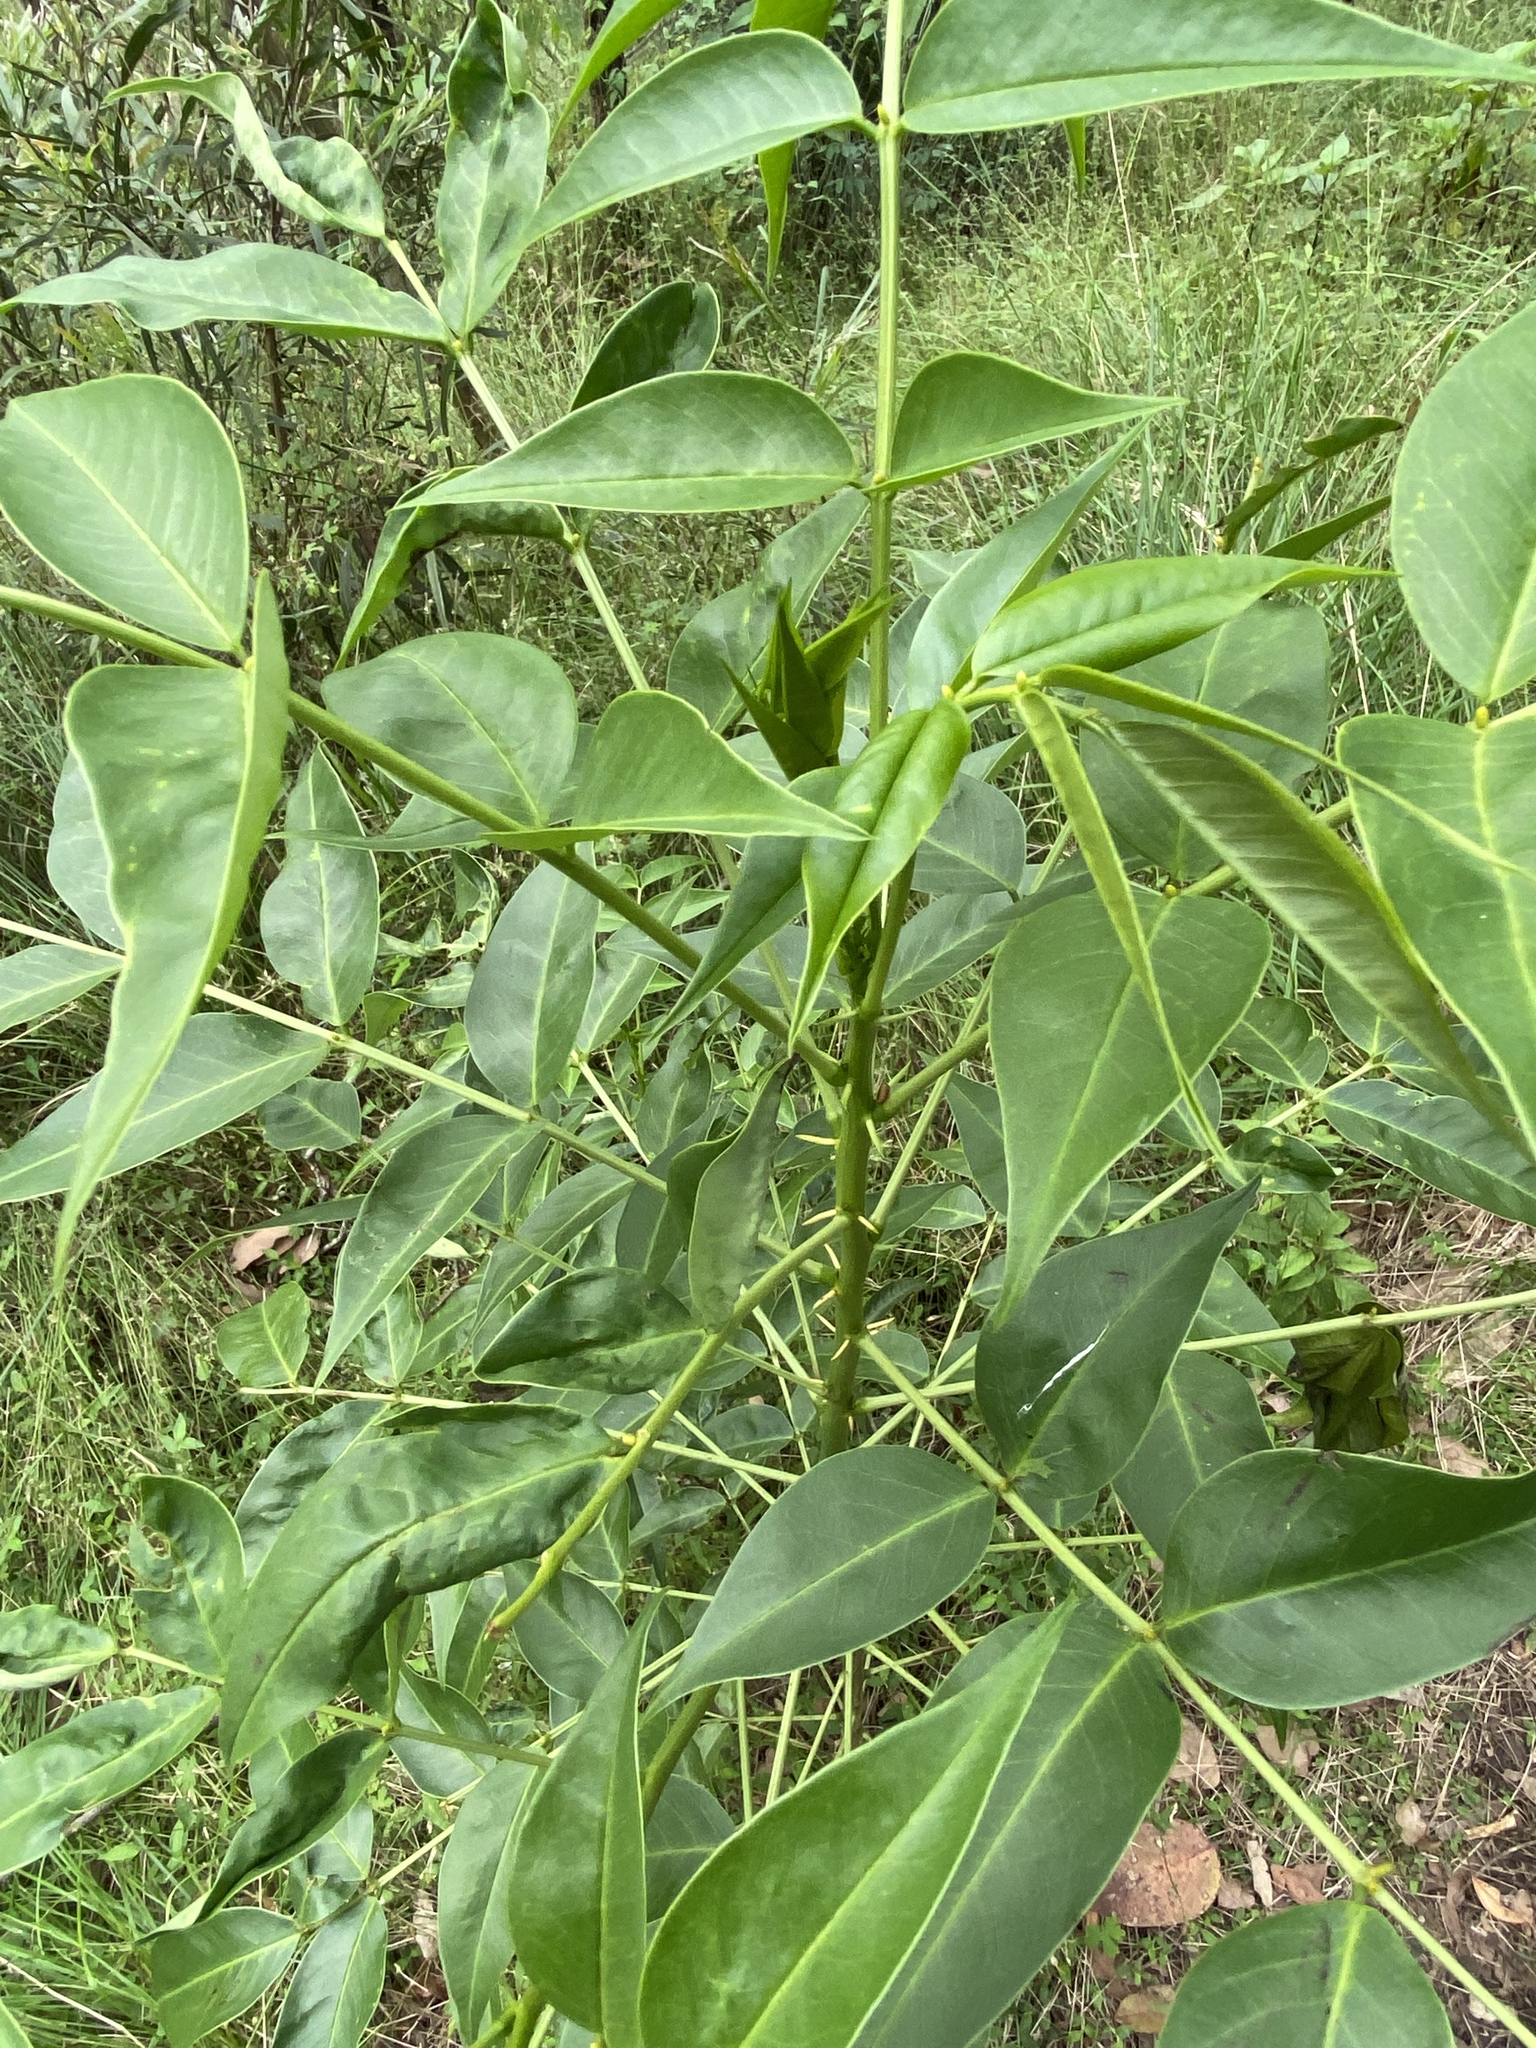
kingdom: Plantae
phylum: Tracheophyta
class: Magnoliopsida
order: Fabales
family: Fabaceae
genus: Senna
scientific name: Senna septemtrionalis
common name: Arsenic bush
